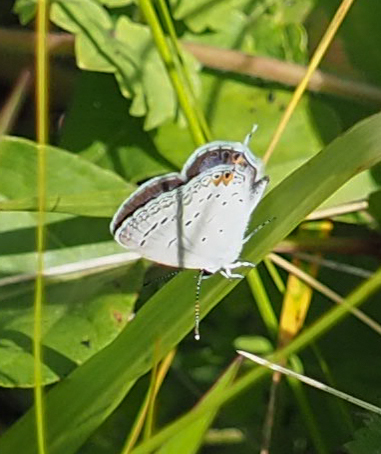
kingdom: Animalia
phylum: Arthropoda
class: Insecta
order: Lepidoptera
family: Lycaenidae
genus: Elkalyce
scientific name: Elkalyce comyntas
